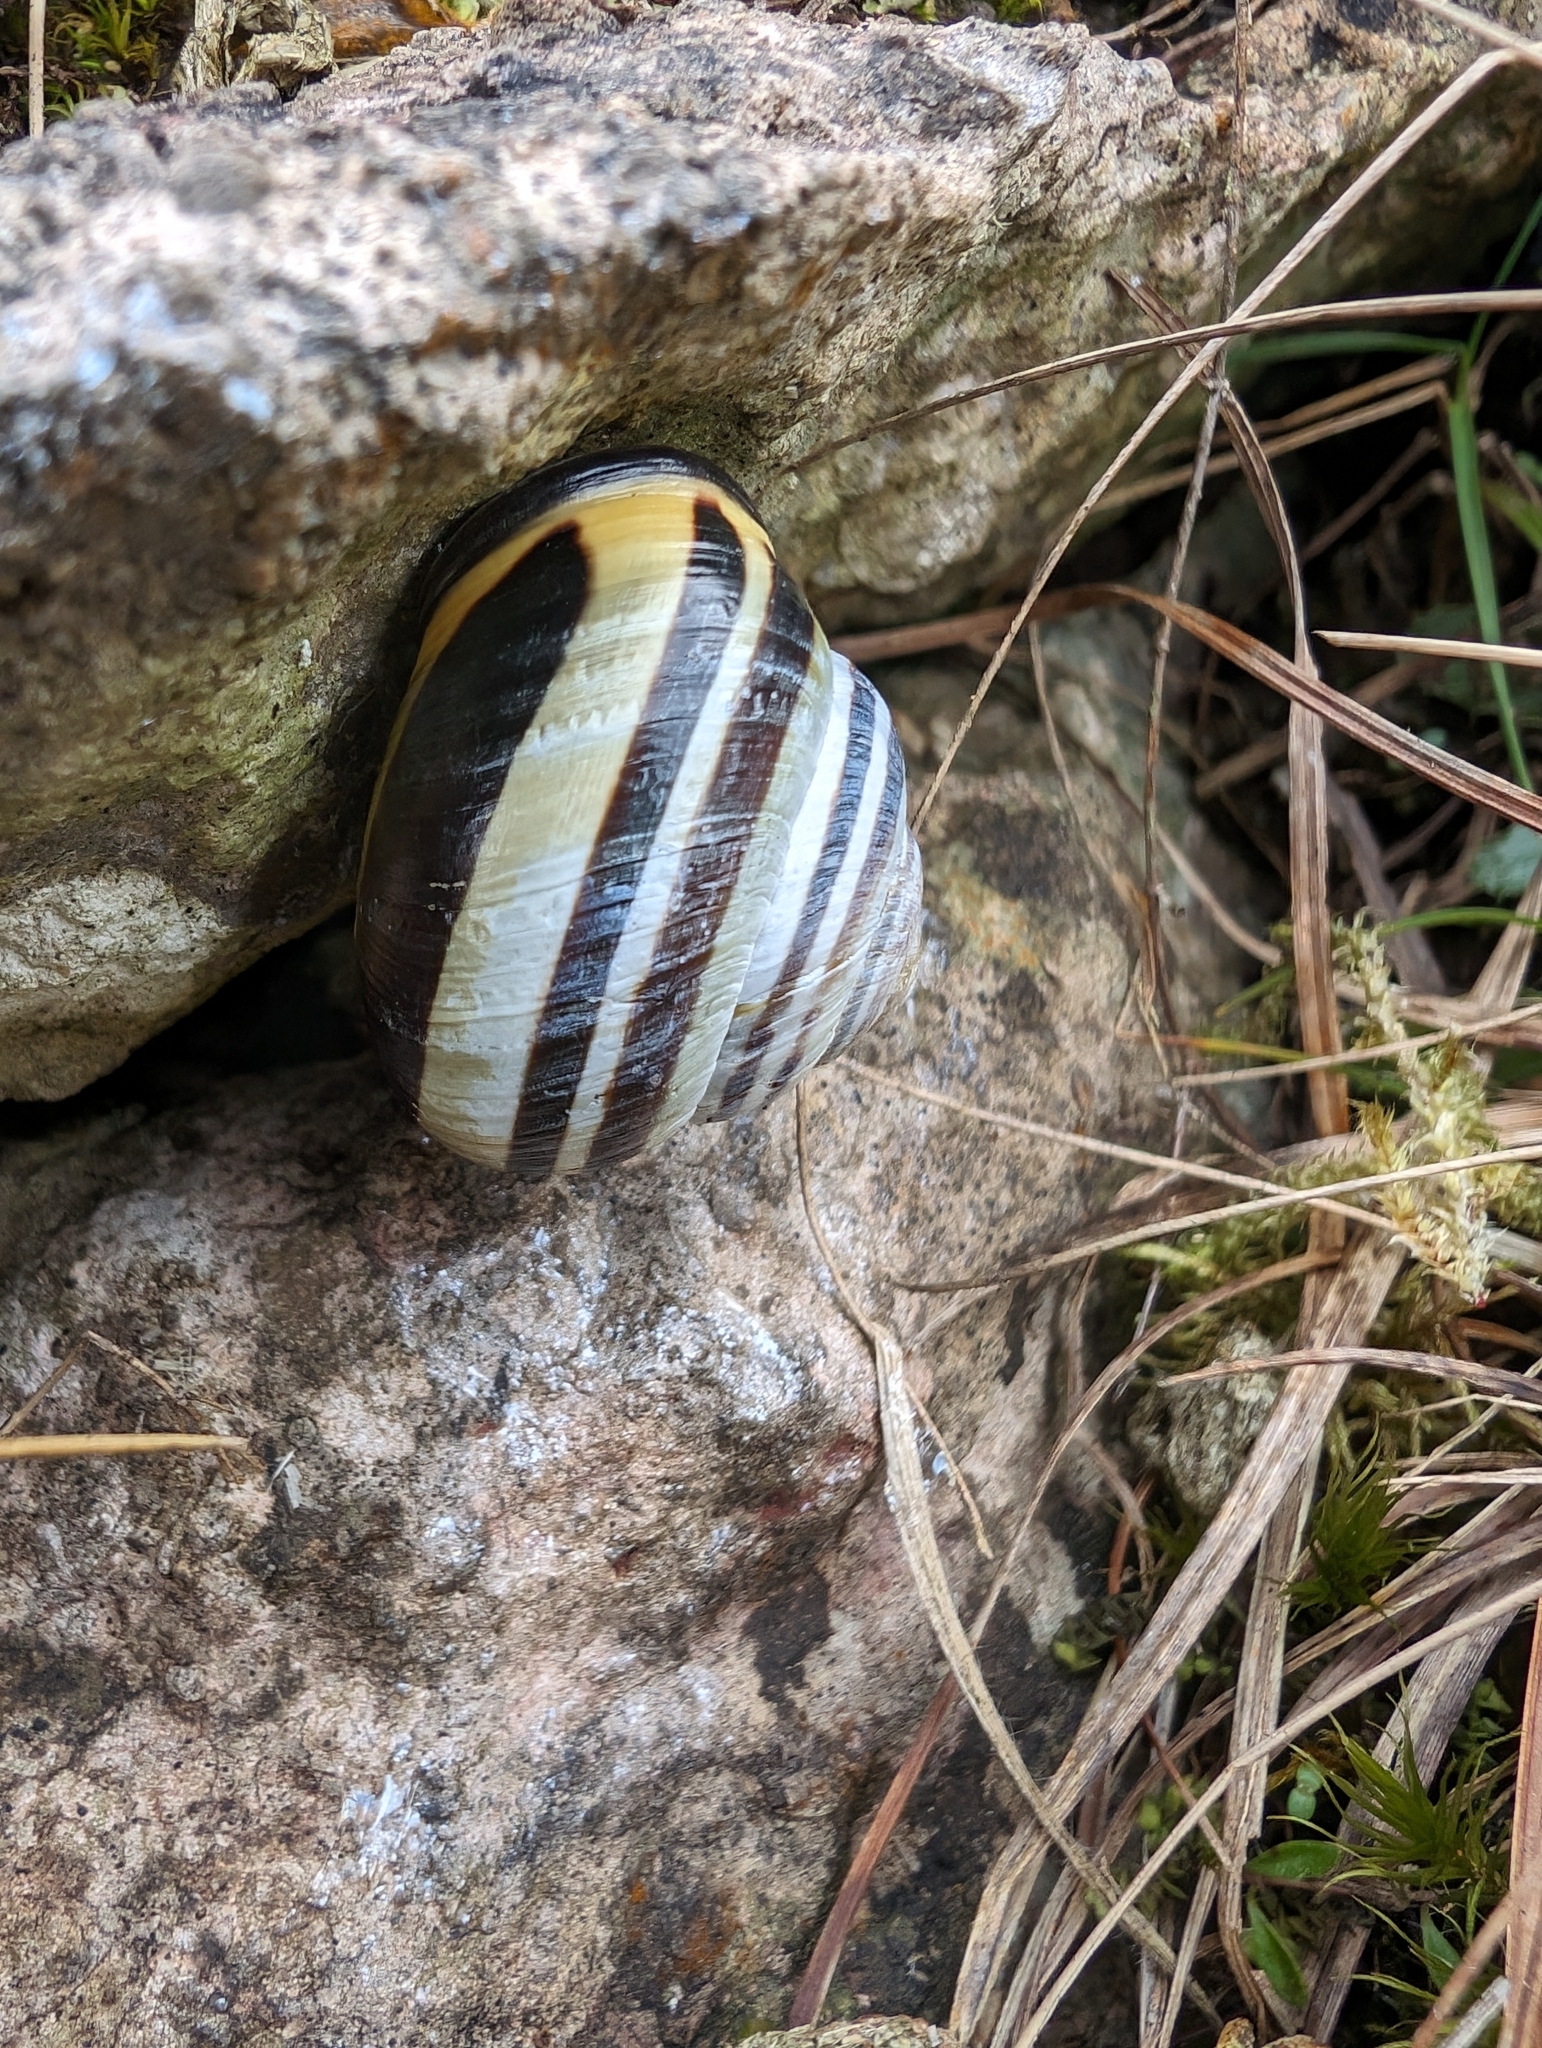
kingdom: Animalia
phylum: Mollusca
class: Gastropoda
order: Stylommatophora
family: Helicidae
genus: Cepaea
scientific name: Cepaea nemoralis
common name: Grovesnail
